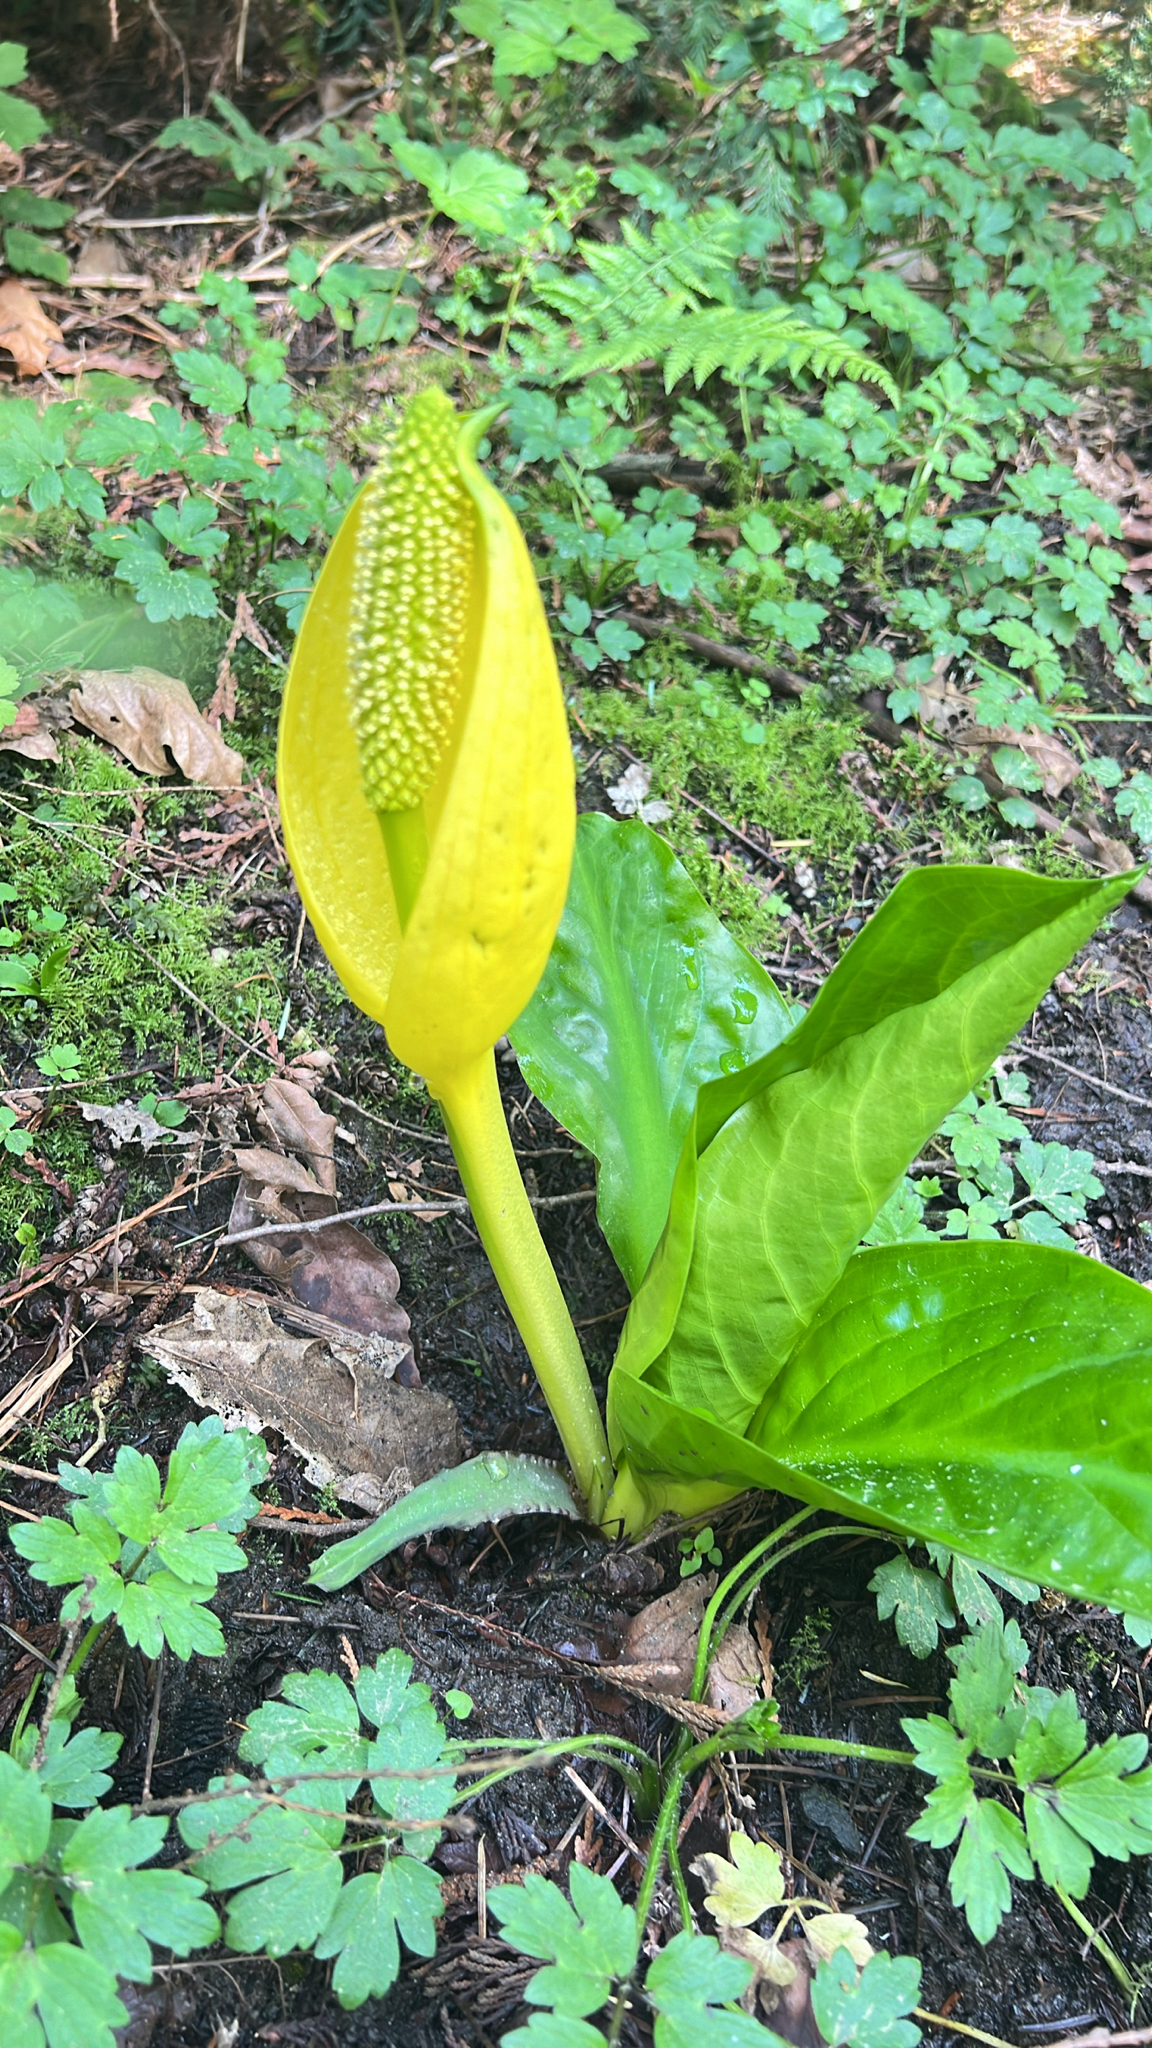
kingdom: Plantae
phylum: Tracheophyta
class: Liliopsida
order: Alismatales
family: Araceae
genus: Lysichiton
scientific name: Lysichiton americanus
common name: American skunk cabbage
